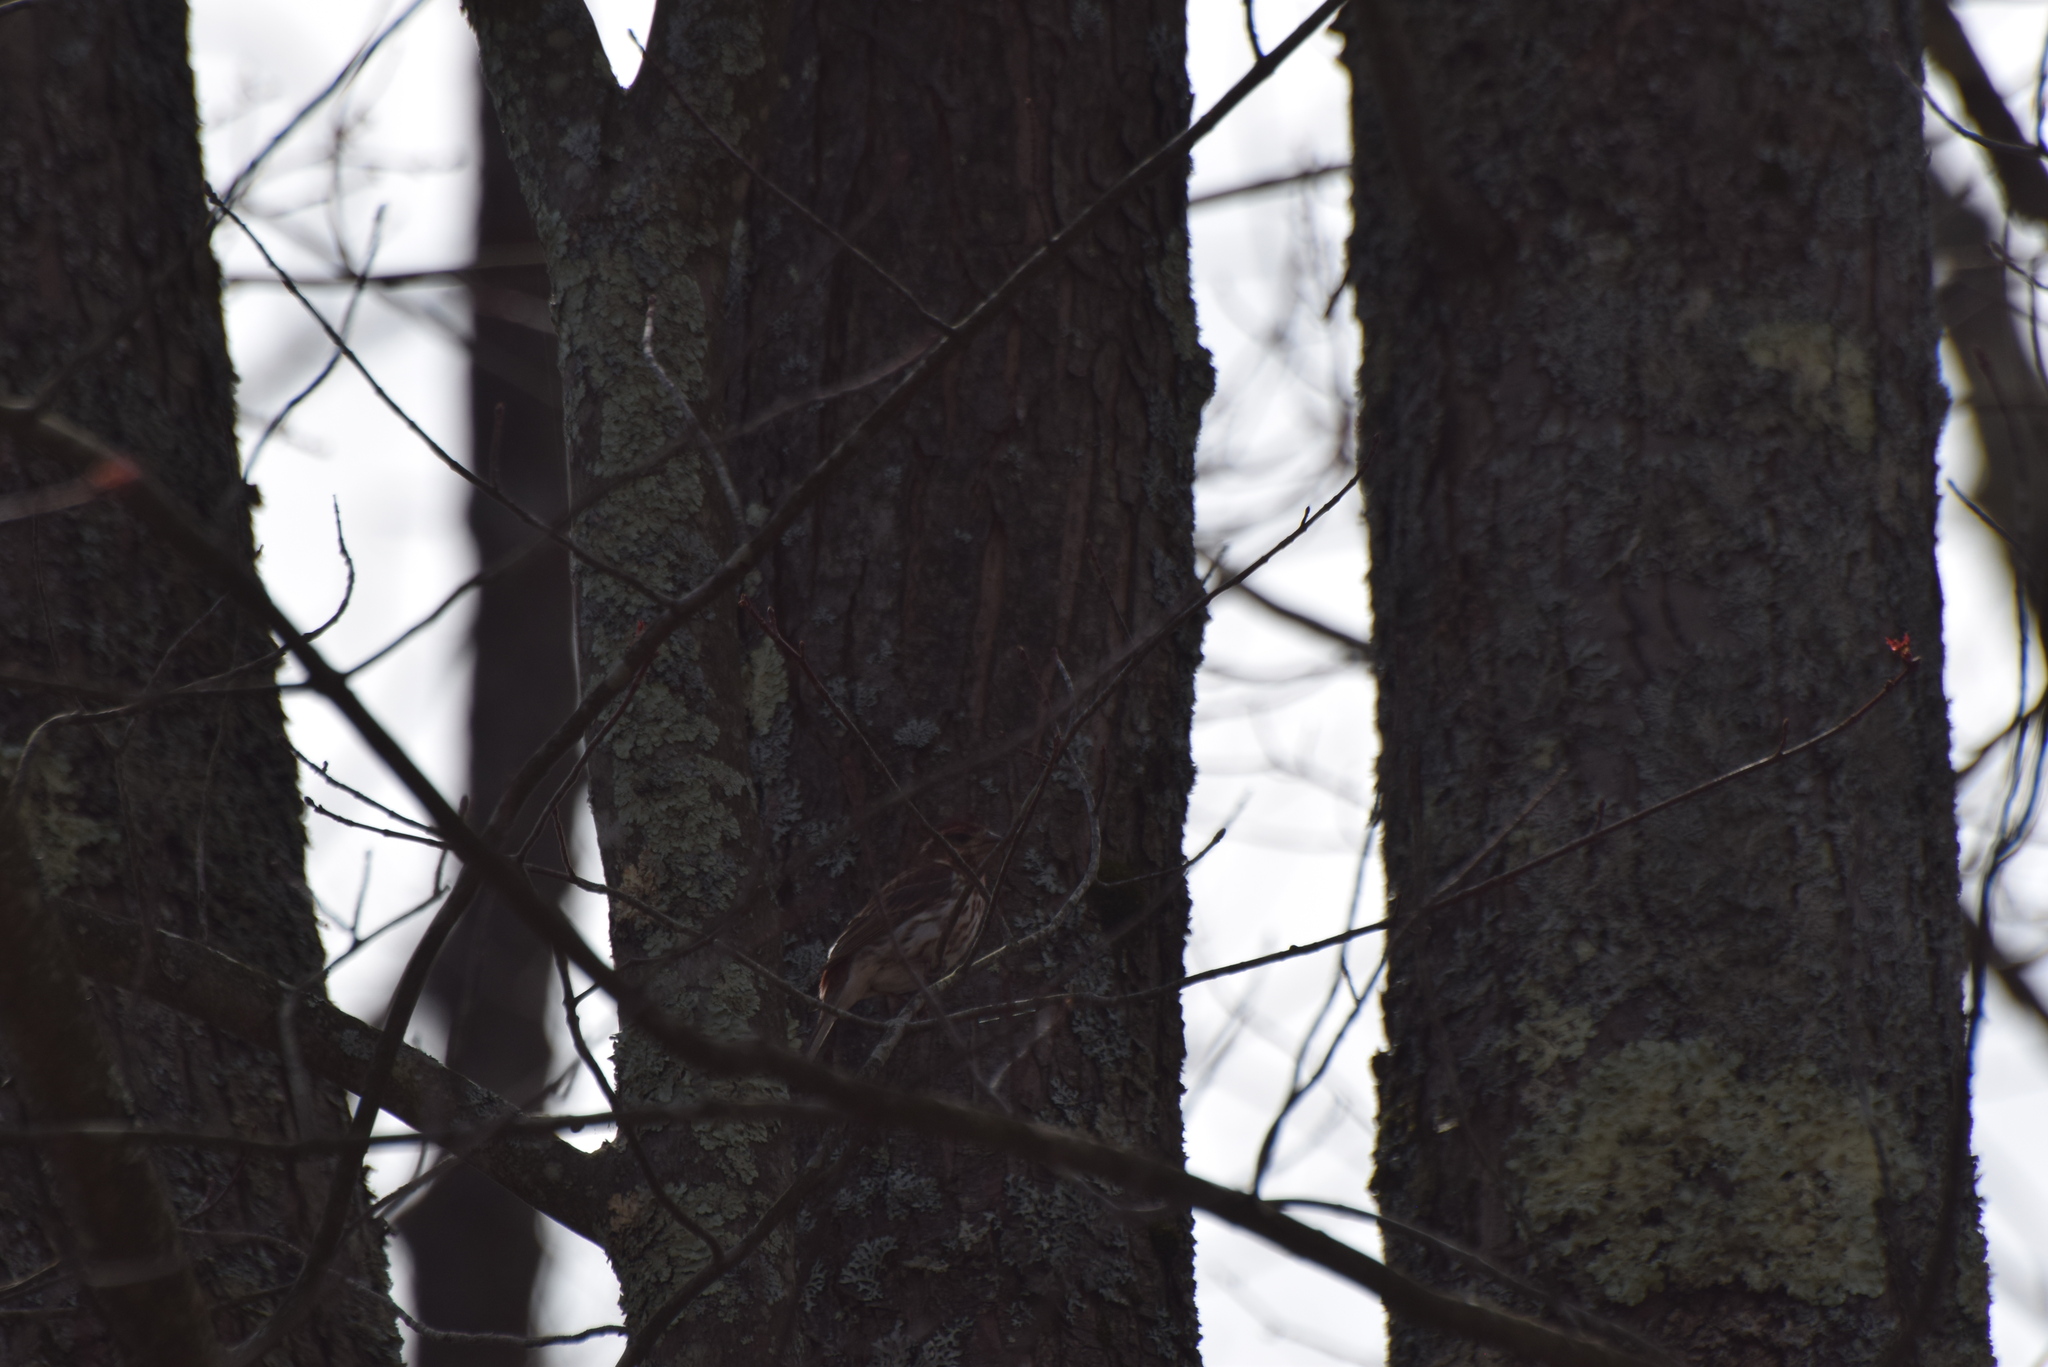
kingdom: Animalia
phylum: Chordata
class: Aves
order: Passeriformes
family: Fringillidae
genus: Haemorhous
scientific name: Haemorhous purpureus
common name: Purple finch
